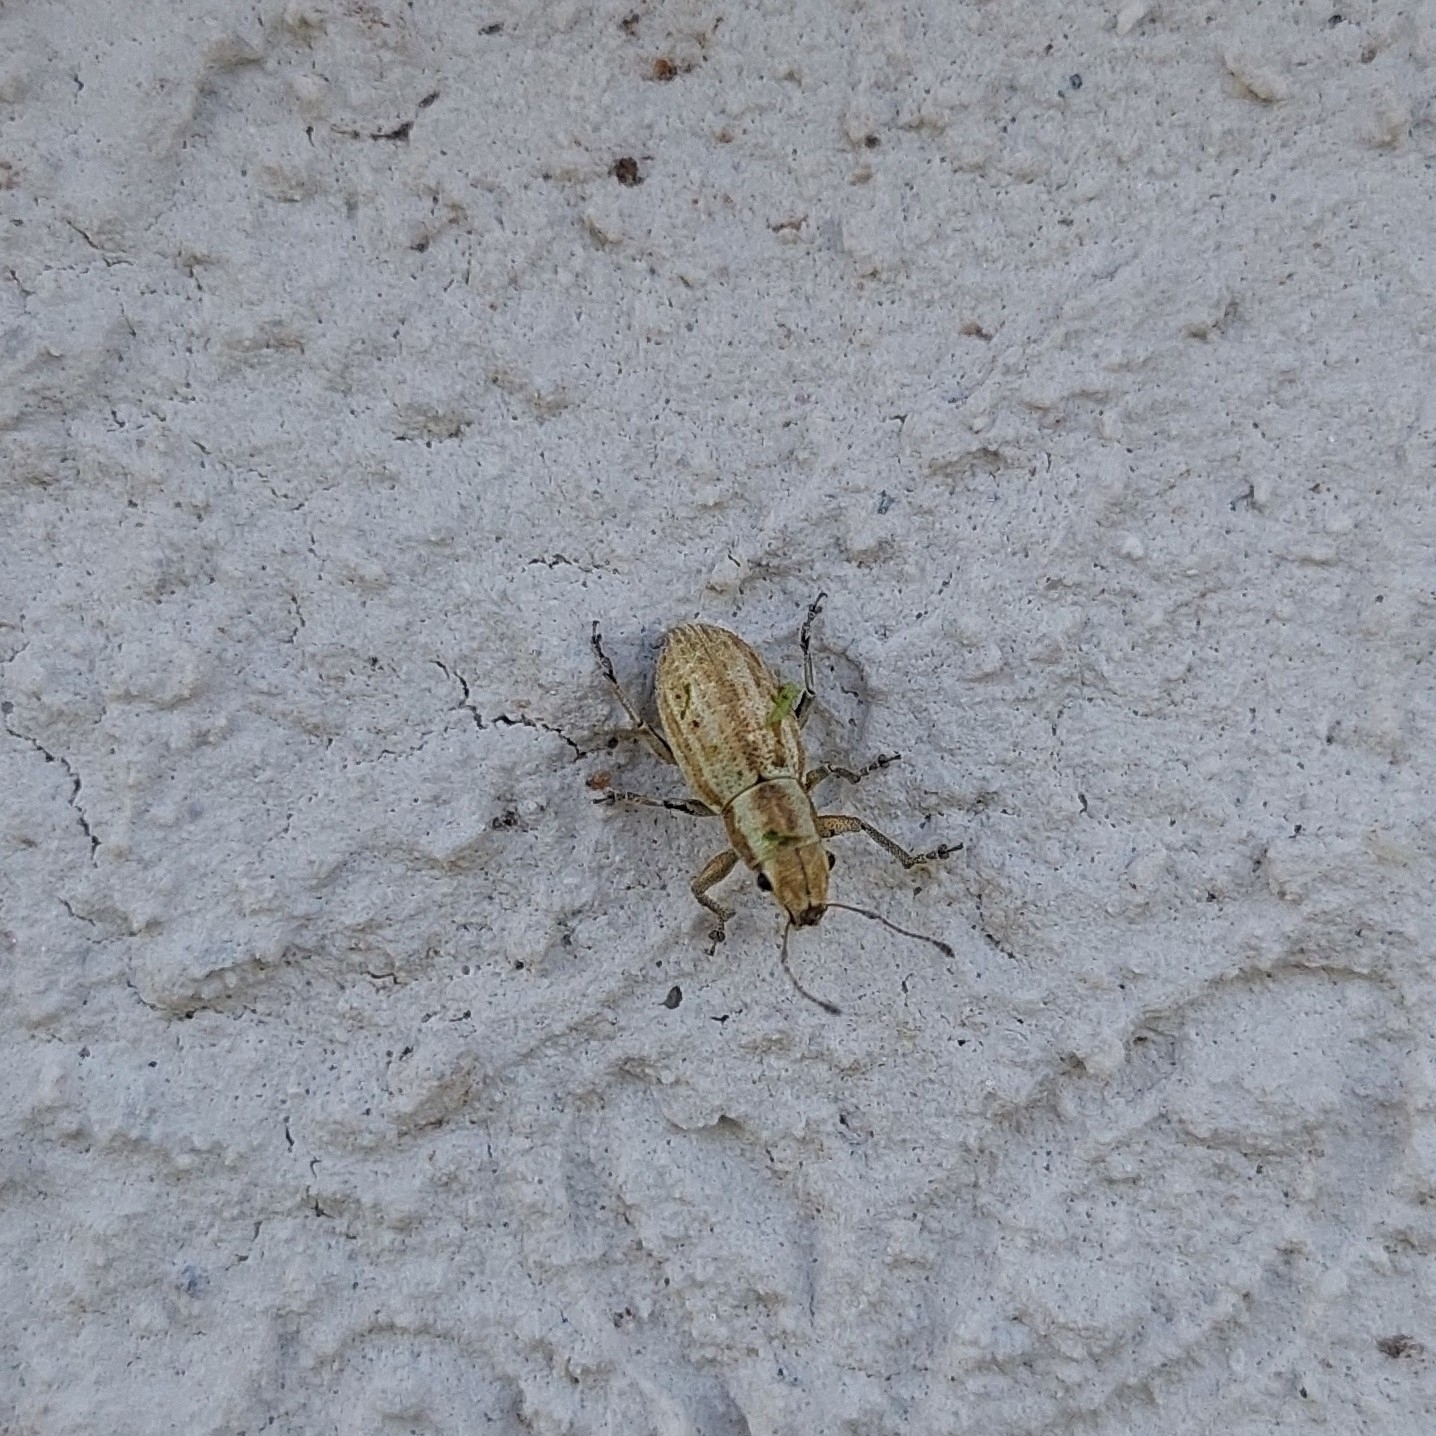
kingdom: Animalia
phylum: Arthropoda
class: Insecta
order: Coleoptera
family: Curculionidae
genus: Aramigus
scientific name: Aramigus tessellatus
